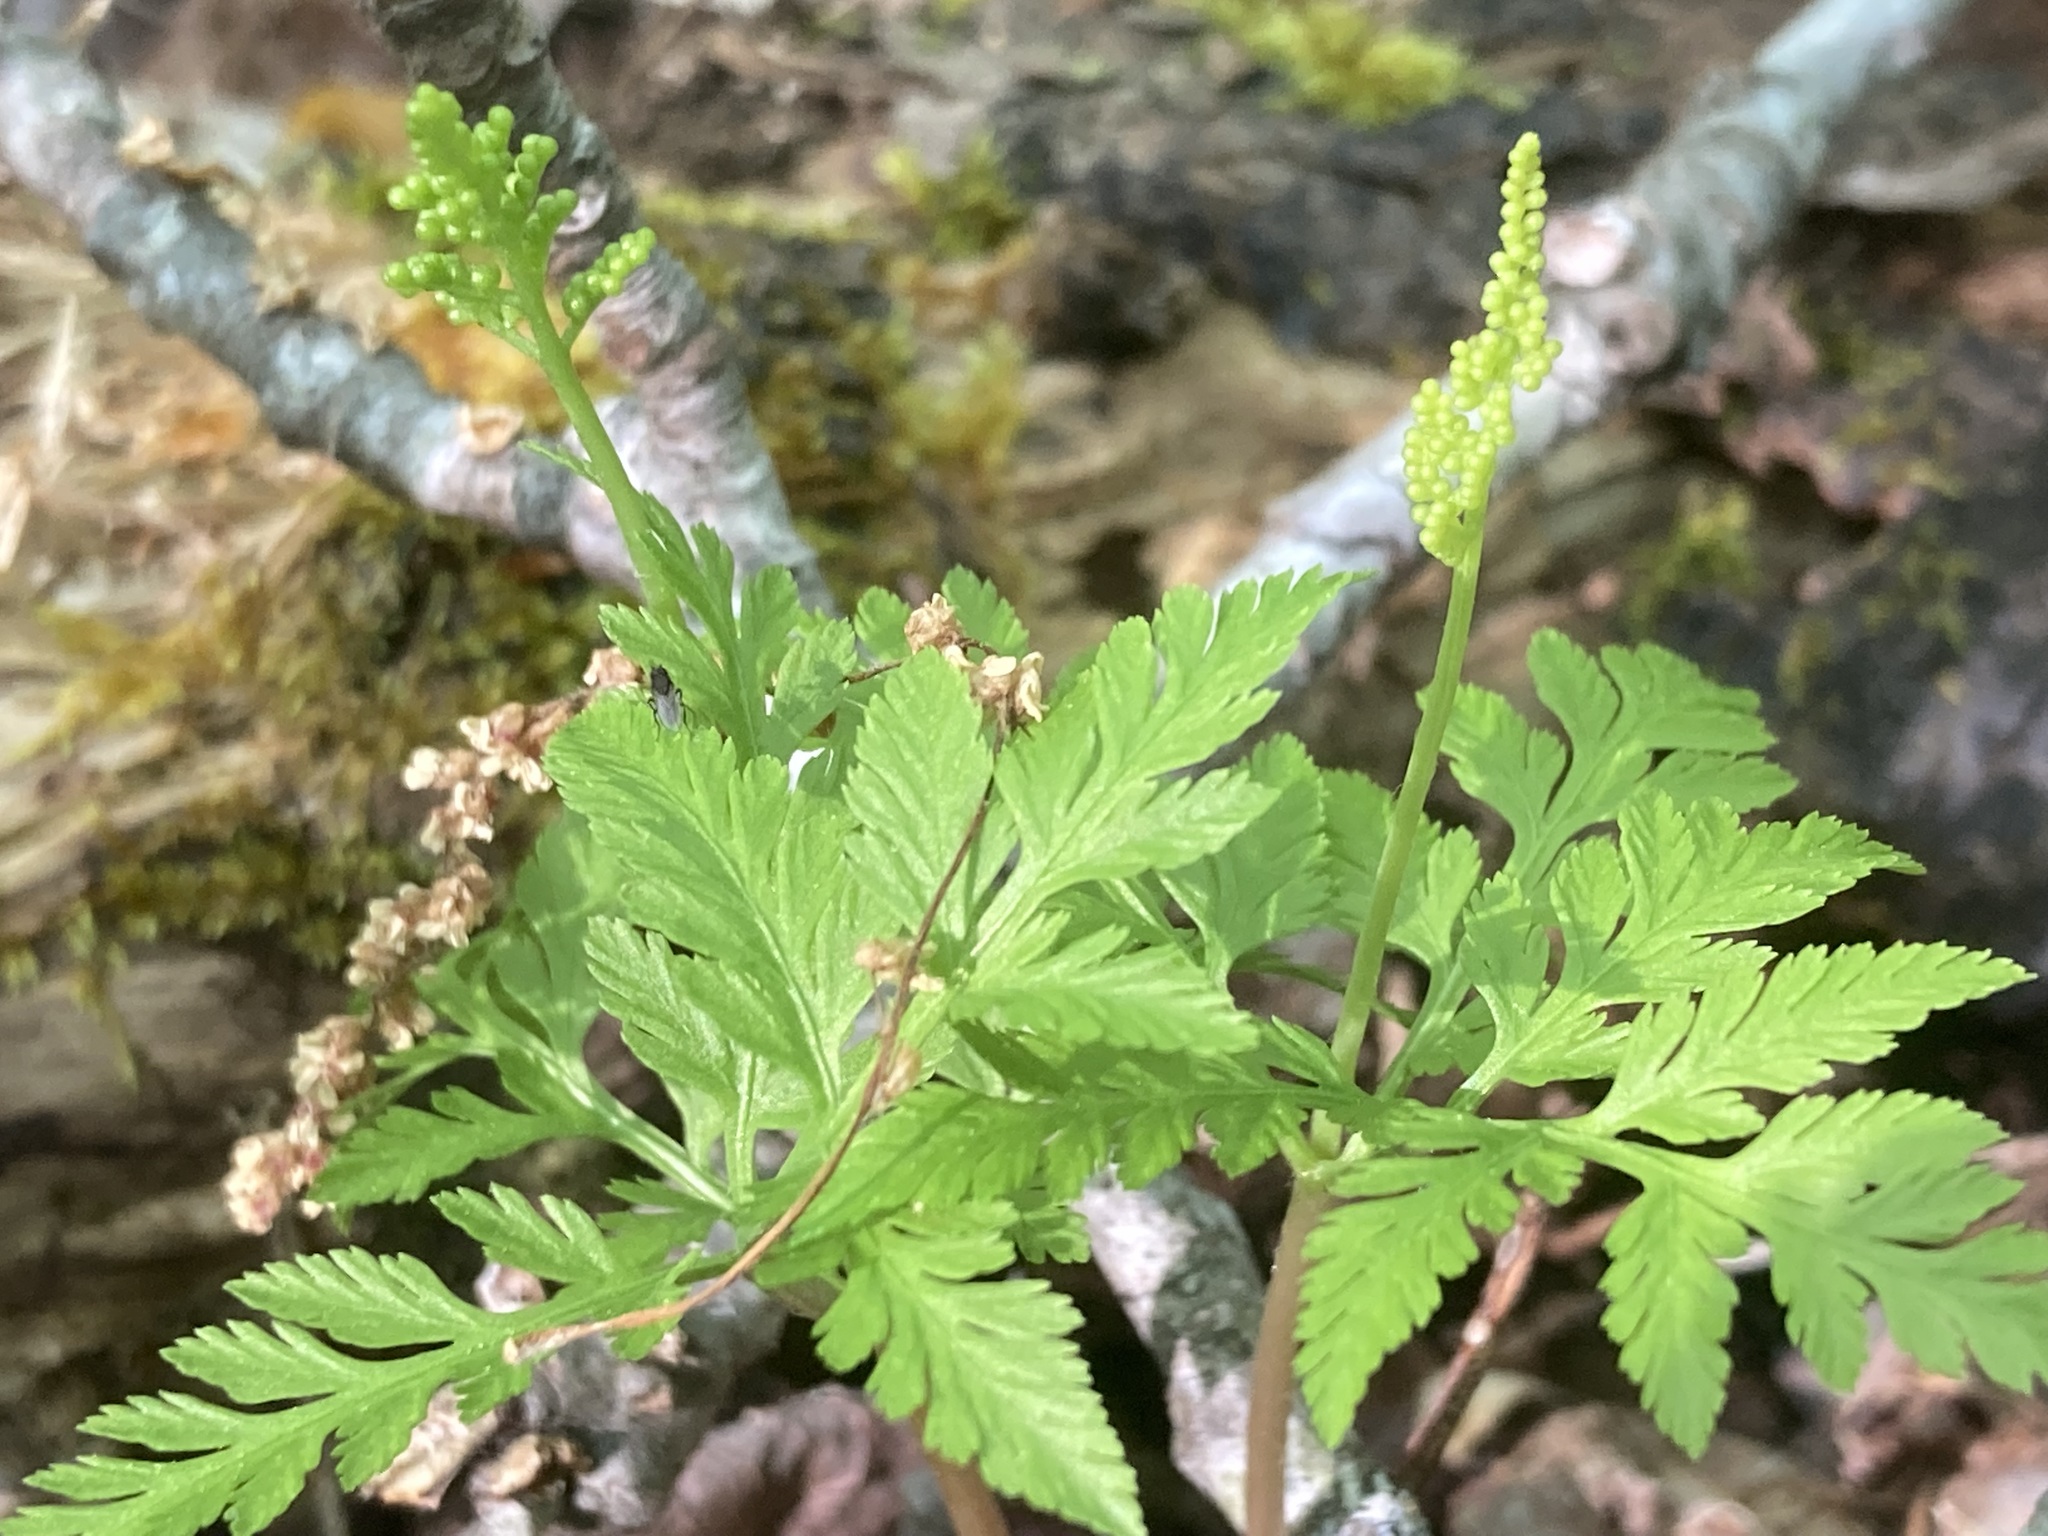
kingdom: Plantae
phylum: Tracheophyta
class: Polypodiopsida
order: Ophioglossales
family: Ophioglossaceae
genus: Botrypus
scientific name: Botrypus virginianus
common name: Common grapefern
